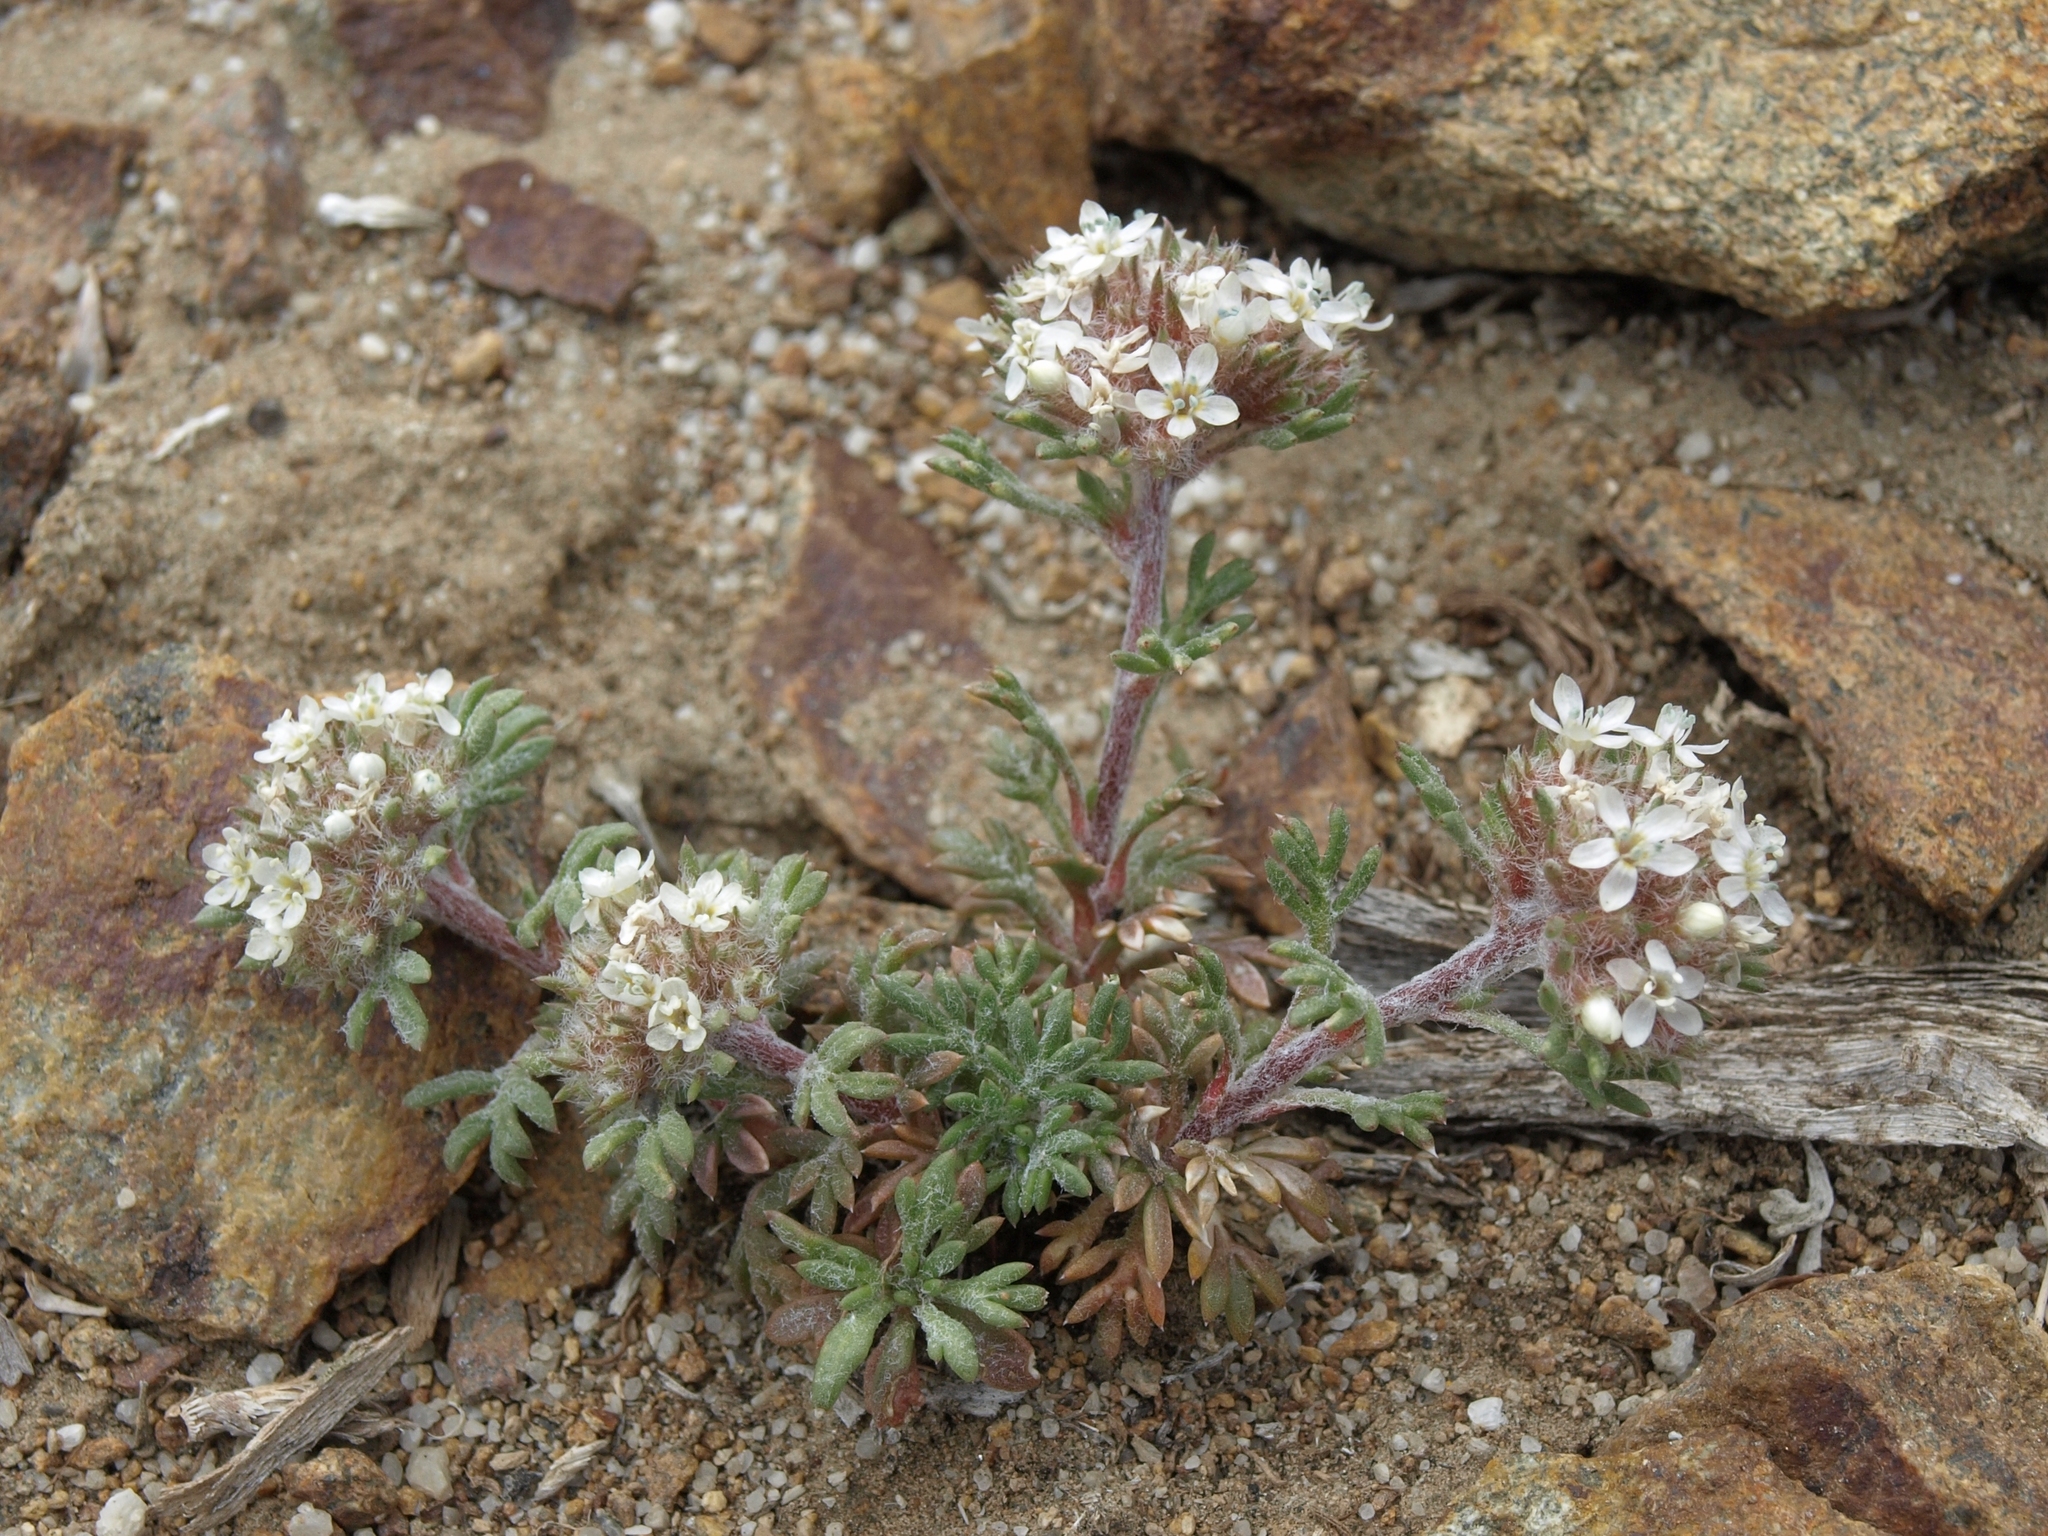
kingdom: Plantae
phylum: Tracheophyta
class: Magnoliopsida
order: Ericales
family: Polemoniaceae
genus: Ipomopsis
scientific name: Ipomopsis congesta
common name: Ball-head gilia
